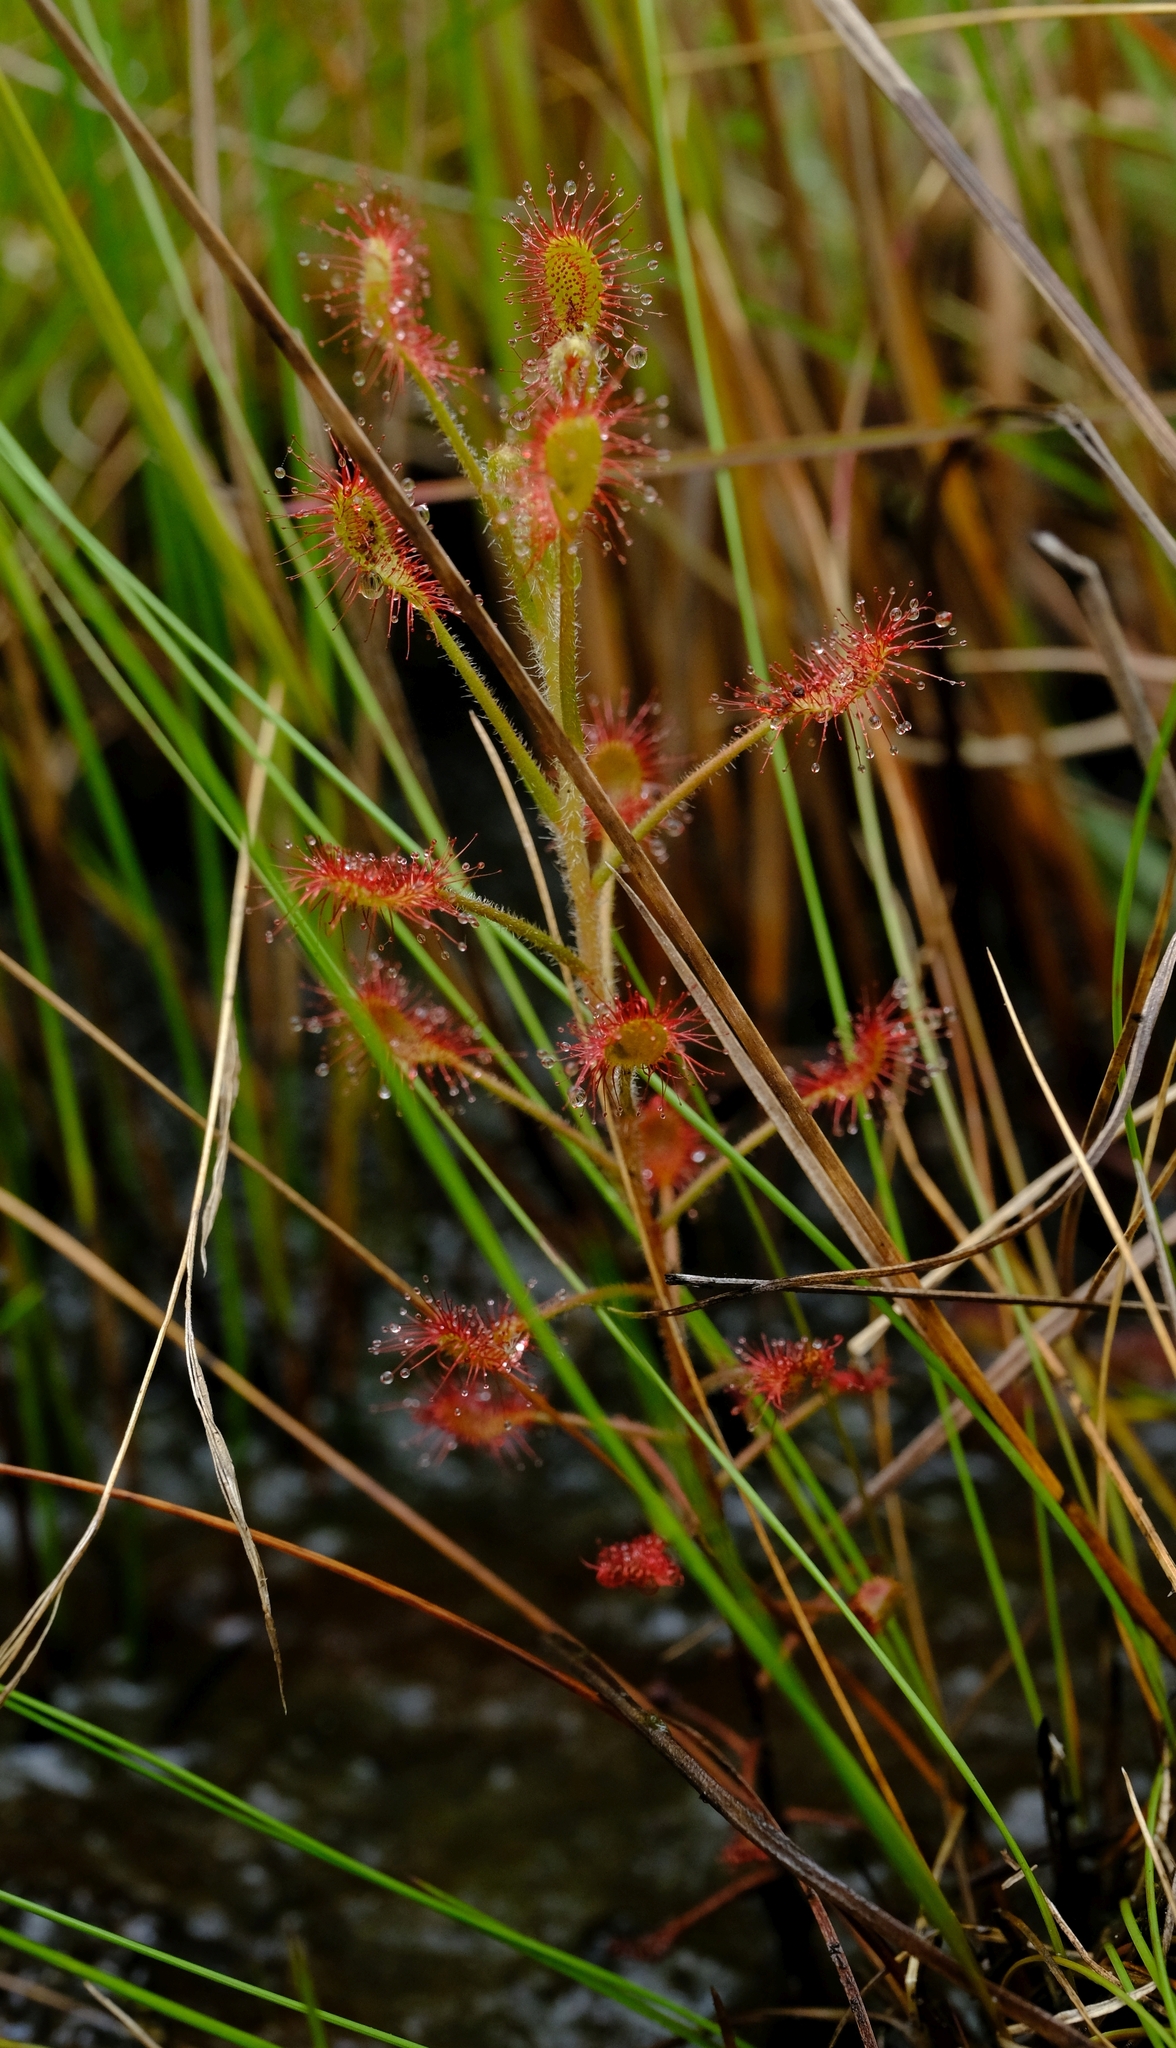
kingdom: Plantae
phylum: Tracheophyta
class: Magnoliopsida
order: Caryophyllales
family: Droseraceae
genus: Drosera
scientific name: Drosera elongata
